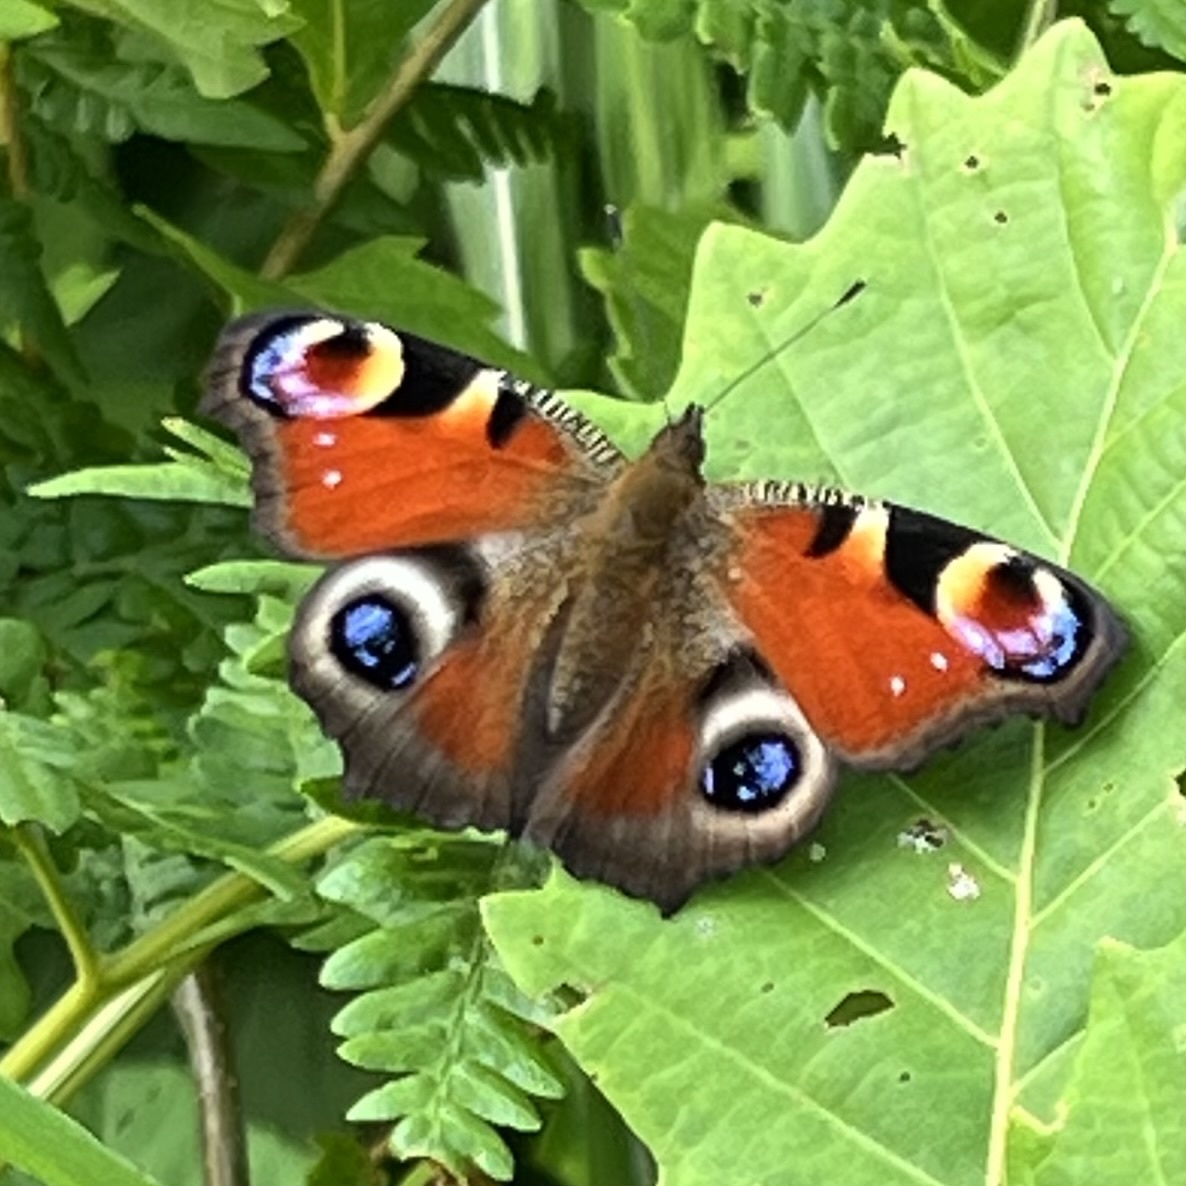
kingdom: Animalia
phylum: Arthropoda
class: Insecta
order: Lepidoptera
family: Nymphalidae
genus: Aglais
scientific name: Aglais io
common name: Peacock
